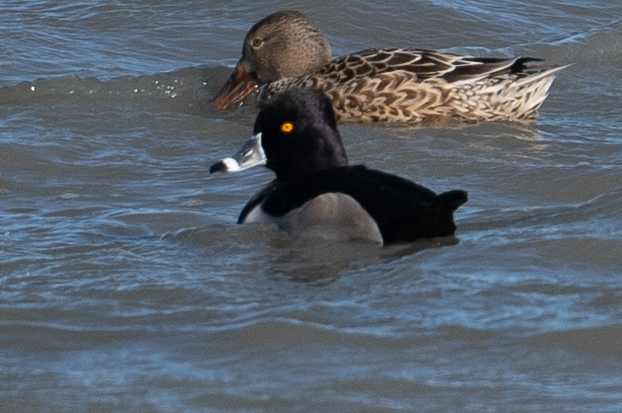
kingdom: Animalia
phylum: Chordata
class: Aves
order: Anseriformes
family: Anatidae
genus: Aythya
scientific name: Aythya collaris
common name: Ring-necked duck
